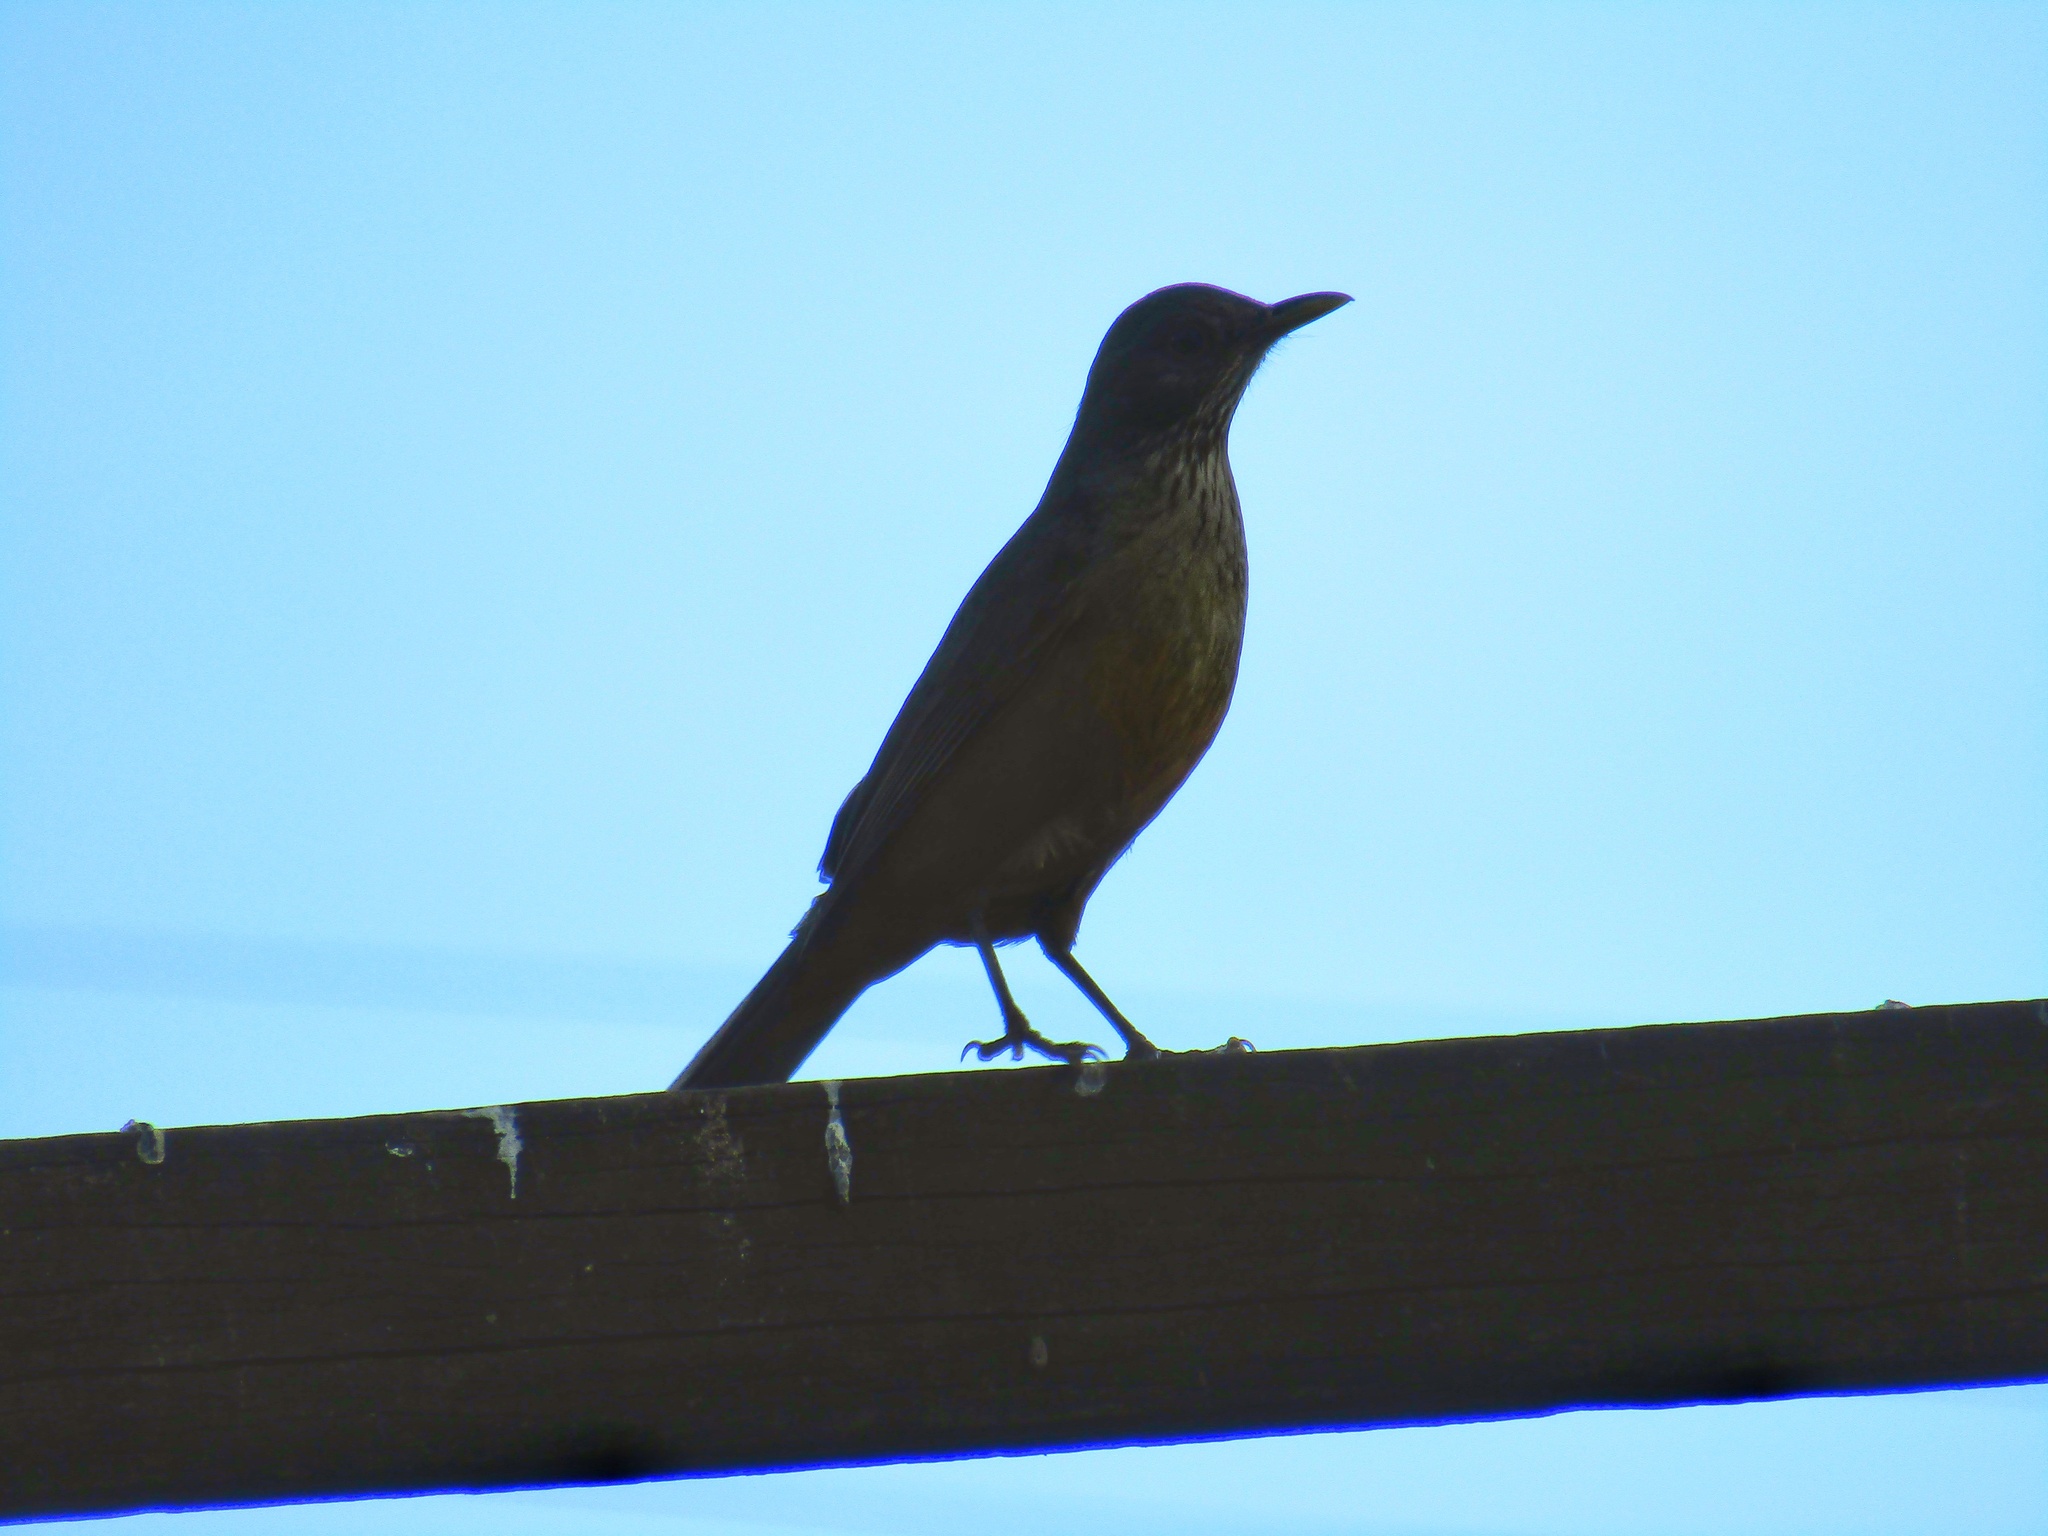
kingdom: Animalia
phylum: Chordata
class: Aves
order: Passeriformes
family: Turdidae
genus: Turdus
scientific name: Turdus rufiventris
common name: Rufous-bellied thrush
